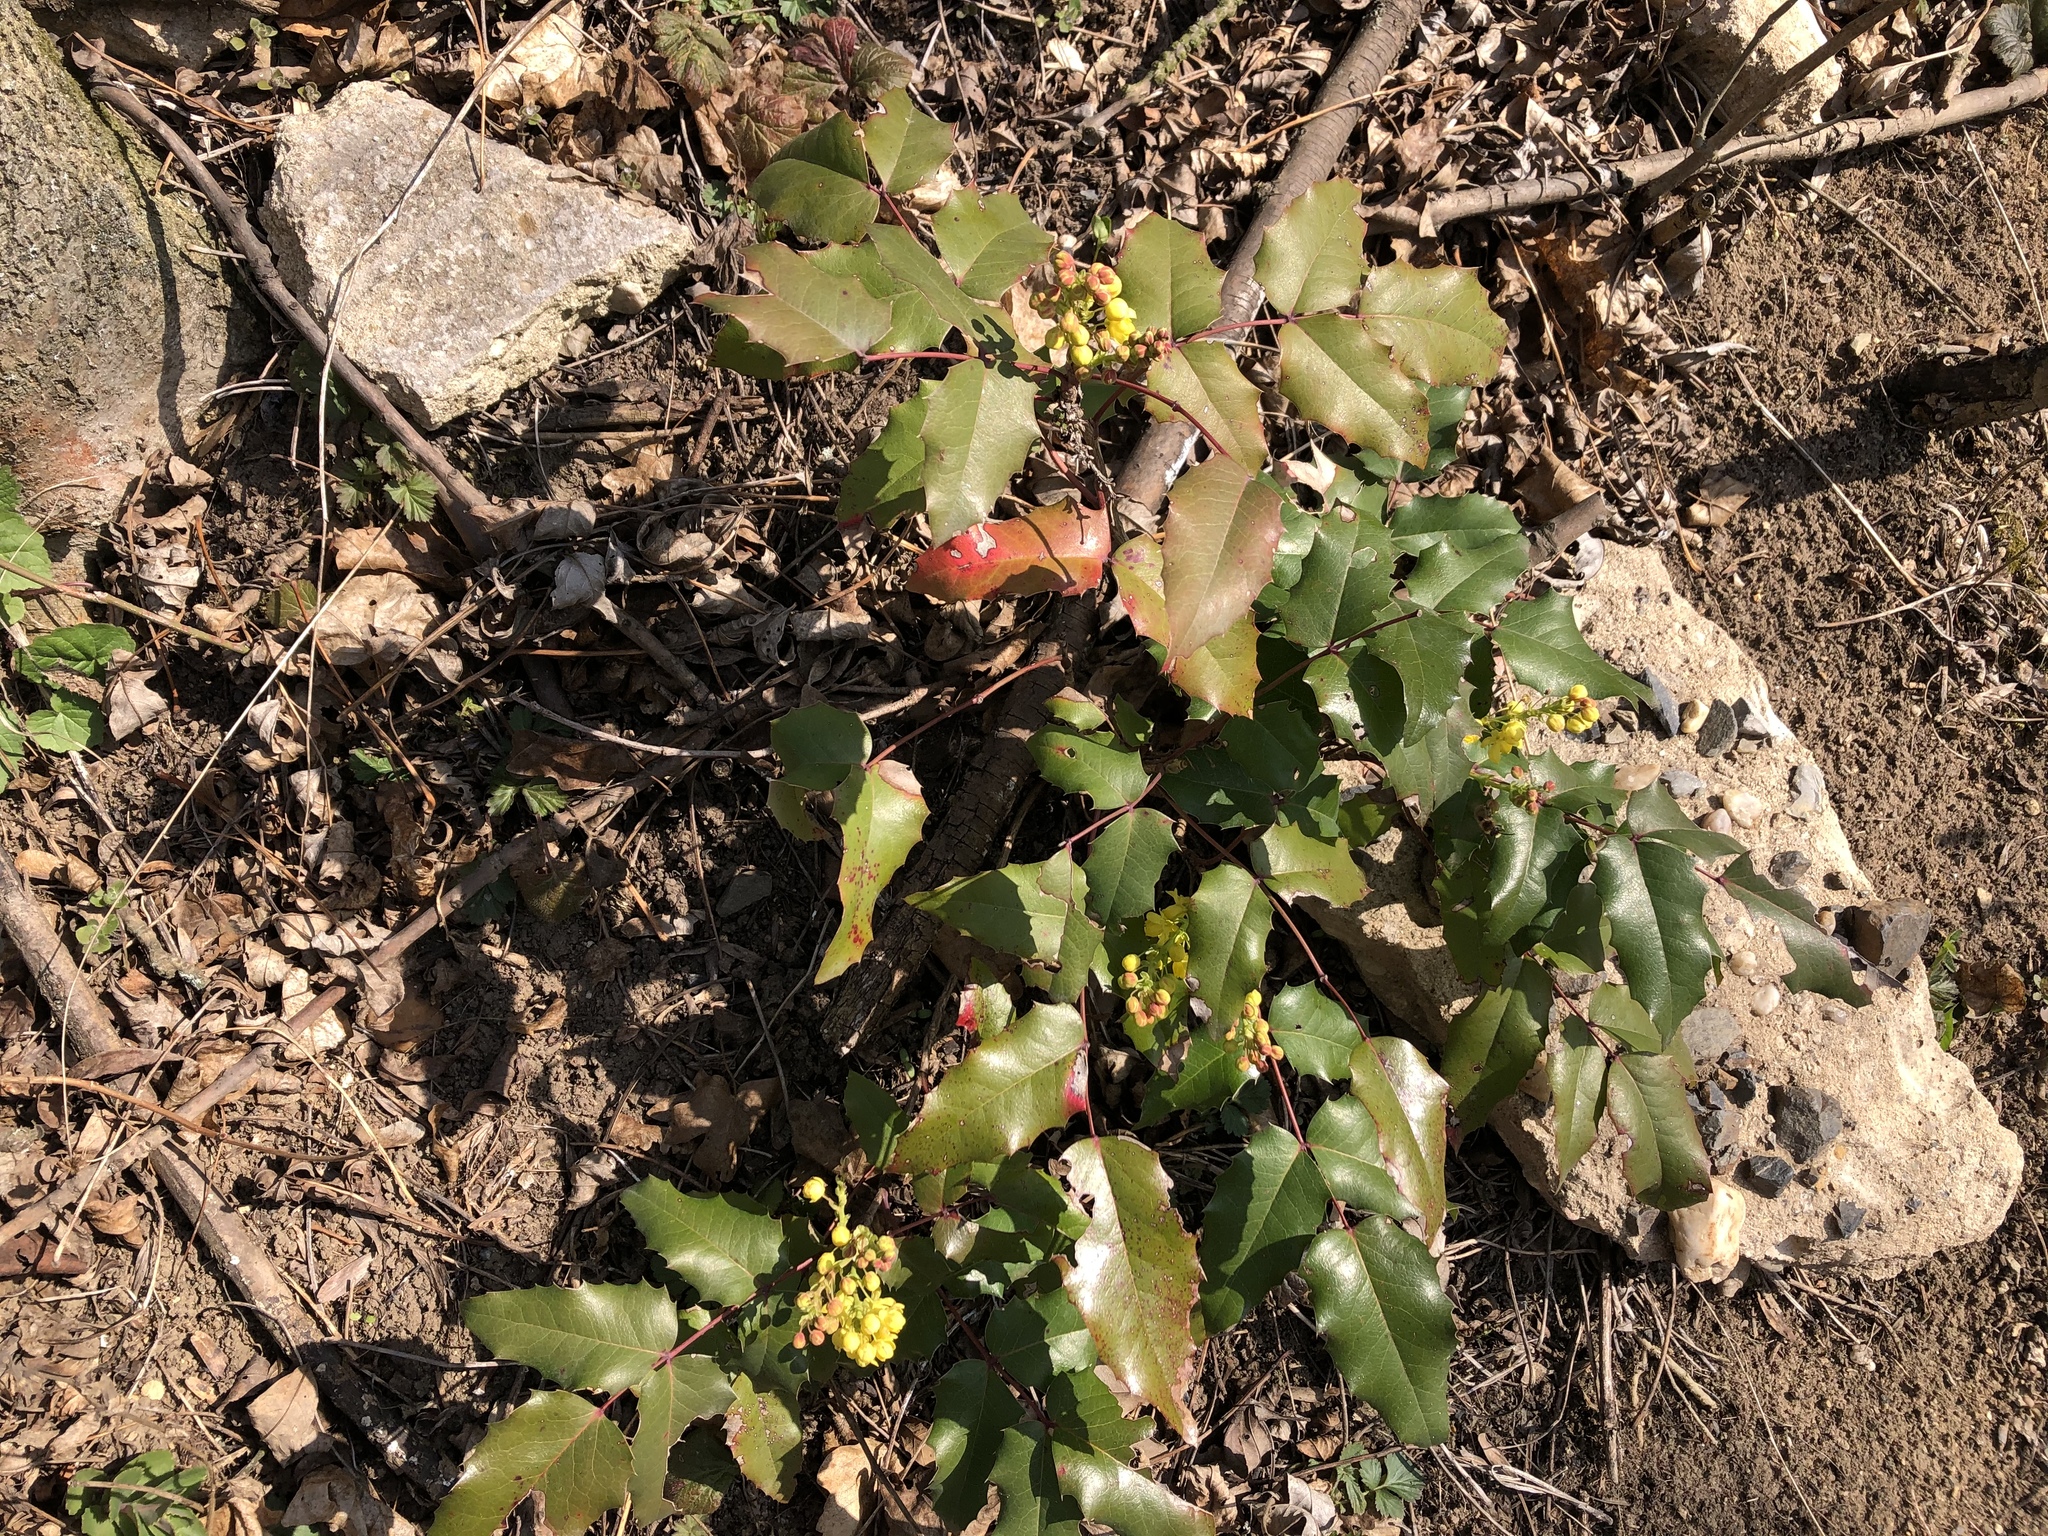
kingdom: Plantae
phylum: Tracheophyta
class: Magnoliopsida
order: Ranunculales
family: Berberidaceae
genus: Mahonia
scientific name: Mahonia aquifolium
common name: Oregon-grape
